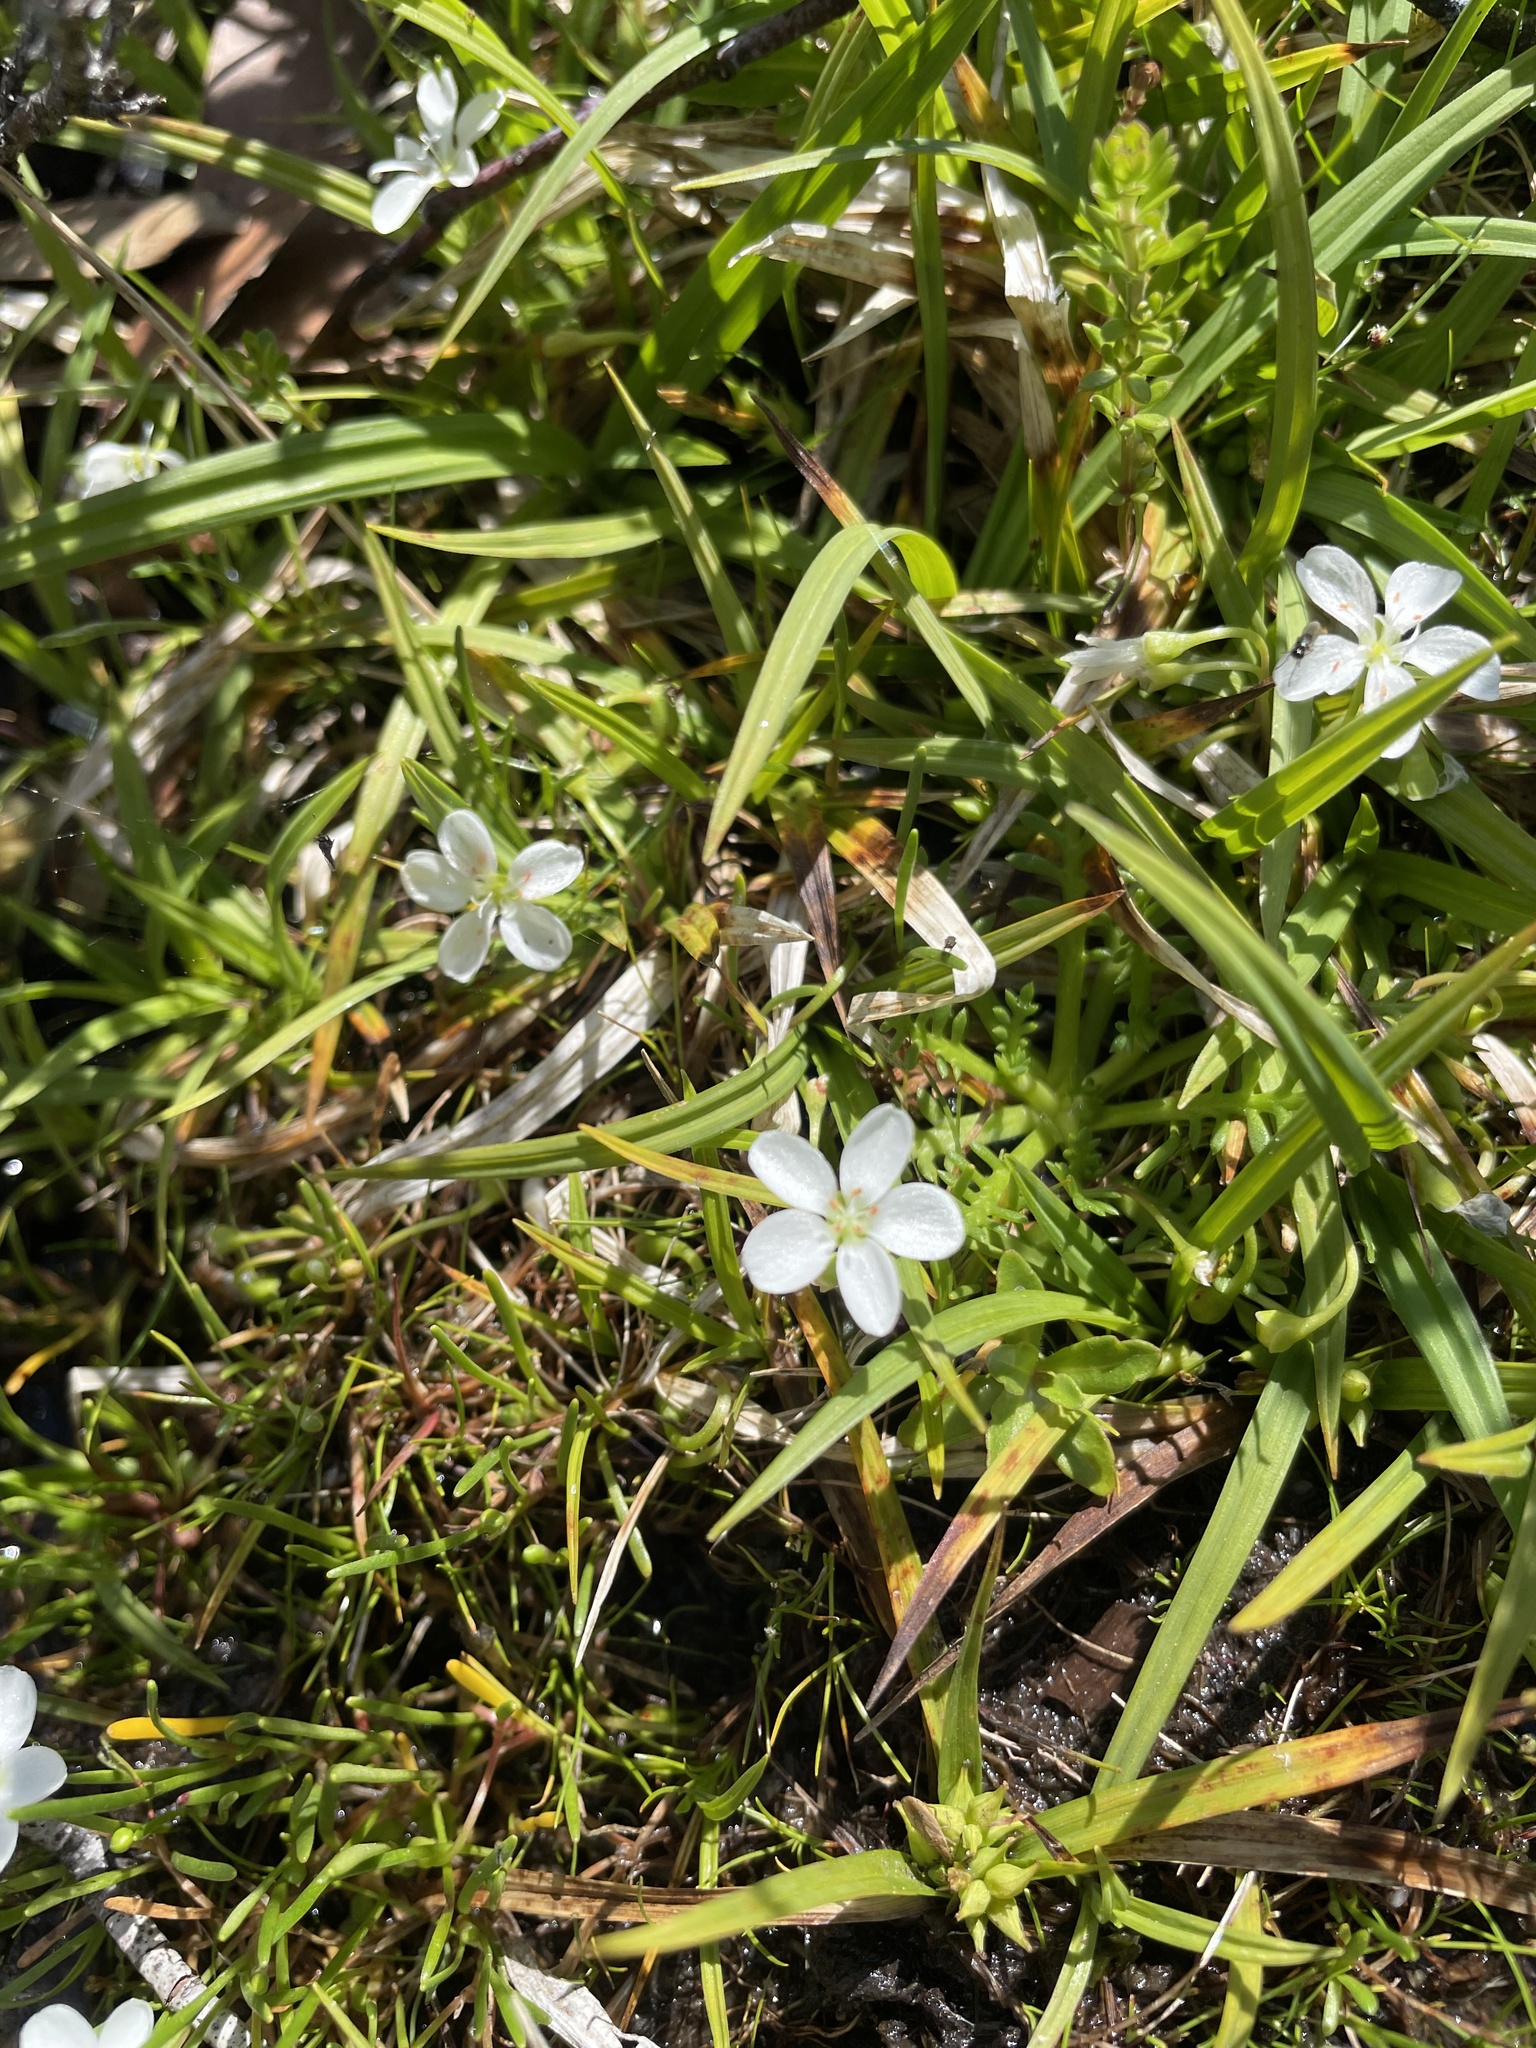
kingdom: Plantae
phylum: Tracheophyta
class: Magnoliopsida
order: Caryophyllales
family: Montiaceae
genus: Montia
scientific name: Montia australasica
